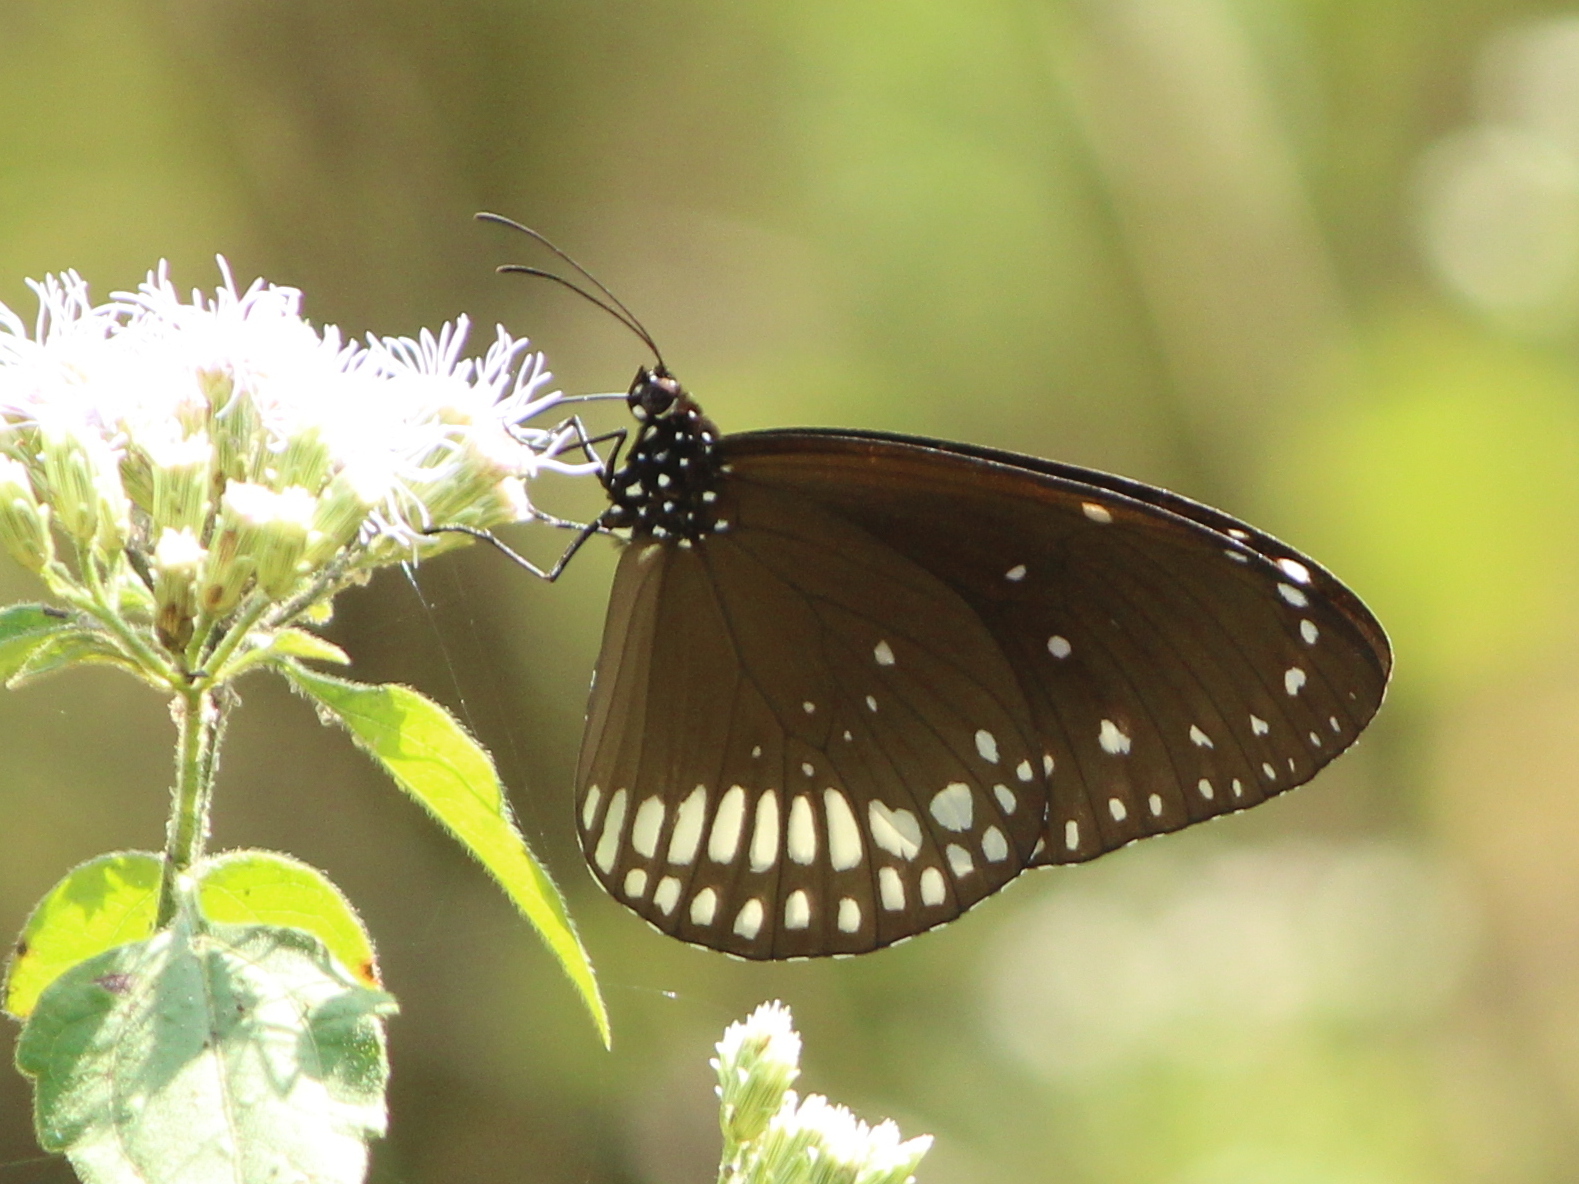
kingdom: Animalia
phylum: Arthropoda
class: Insecta
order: Lepidoptera
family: Nymphalidae
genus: Euploea
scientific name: Euploea core
